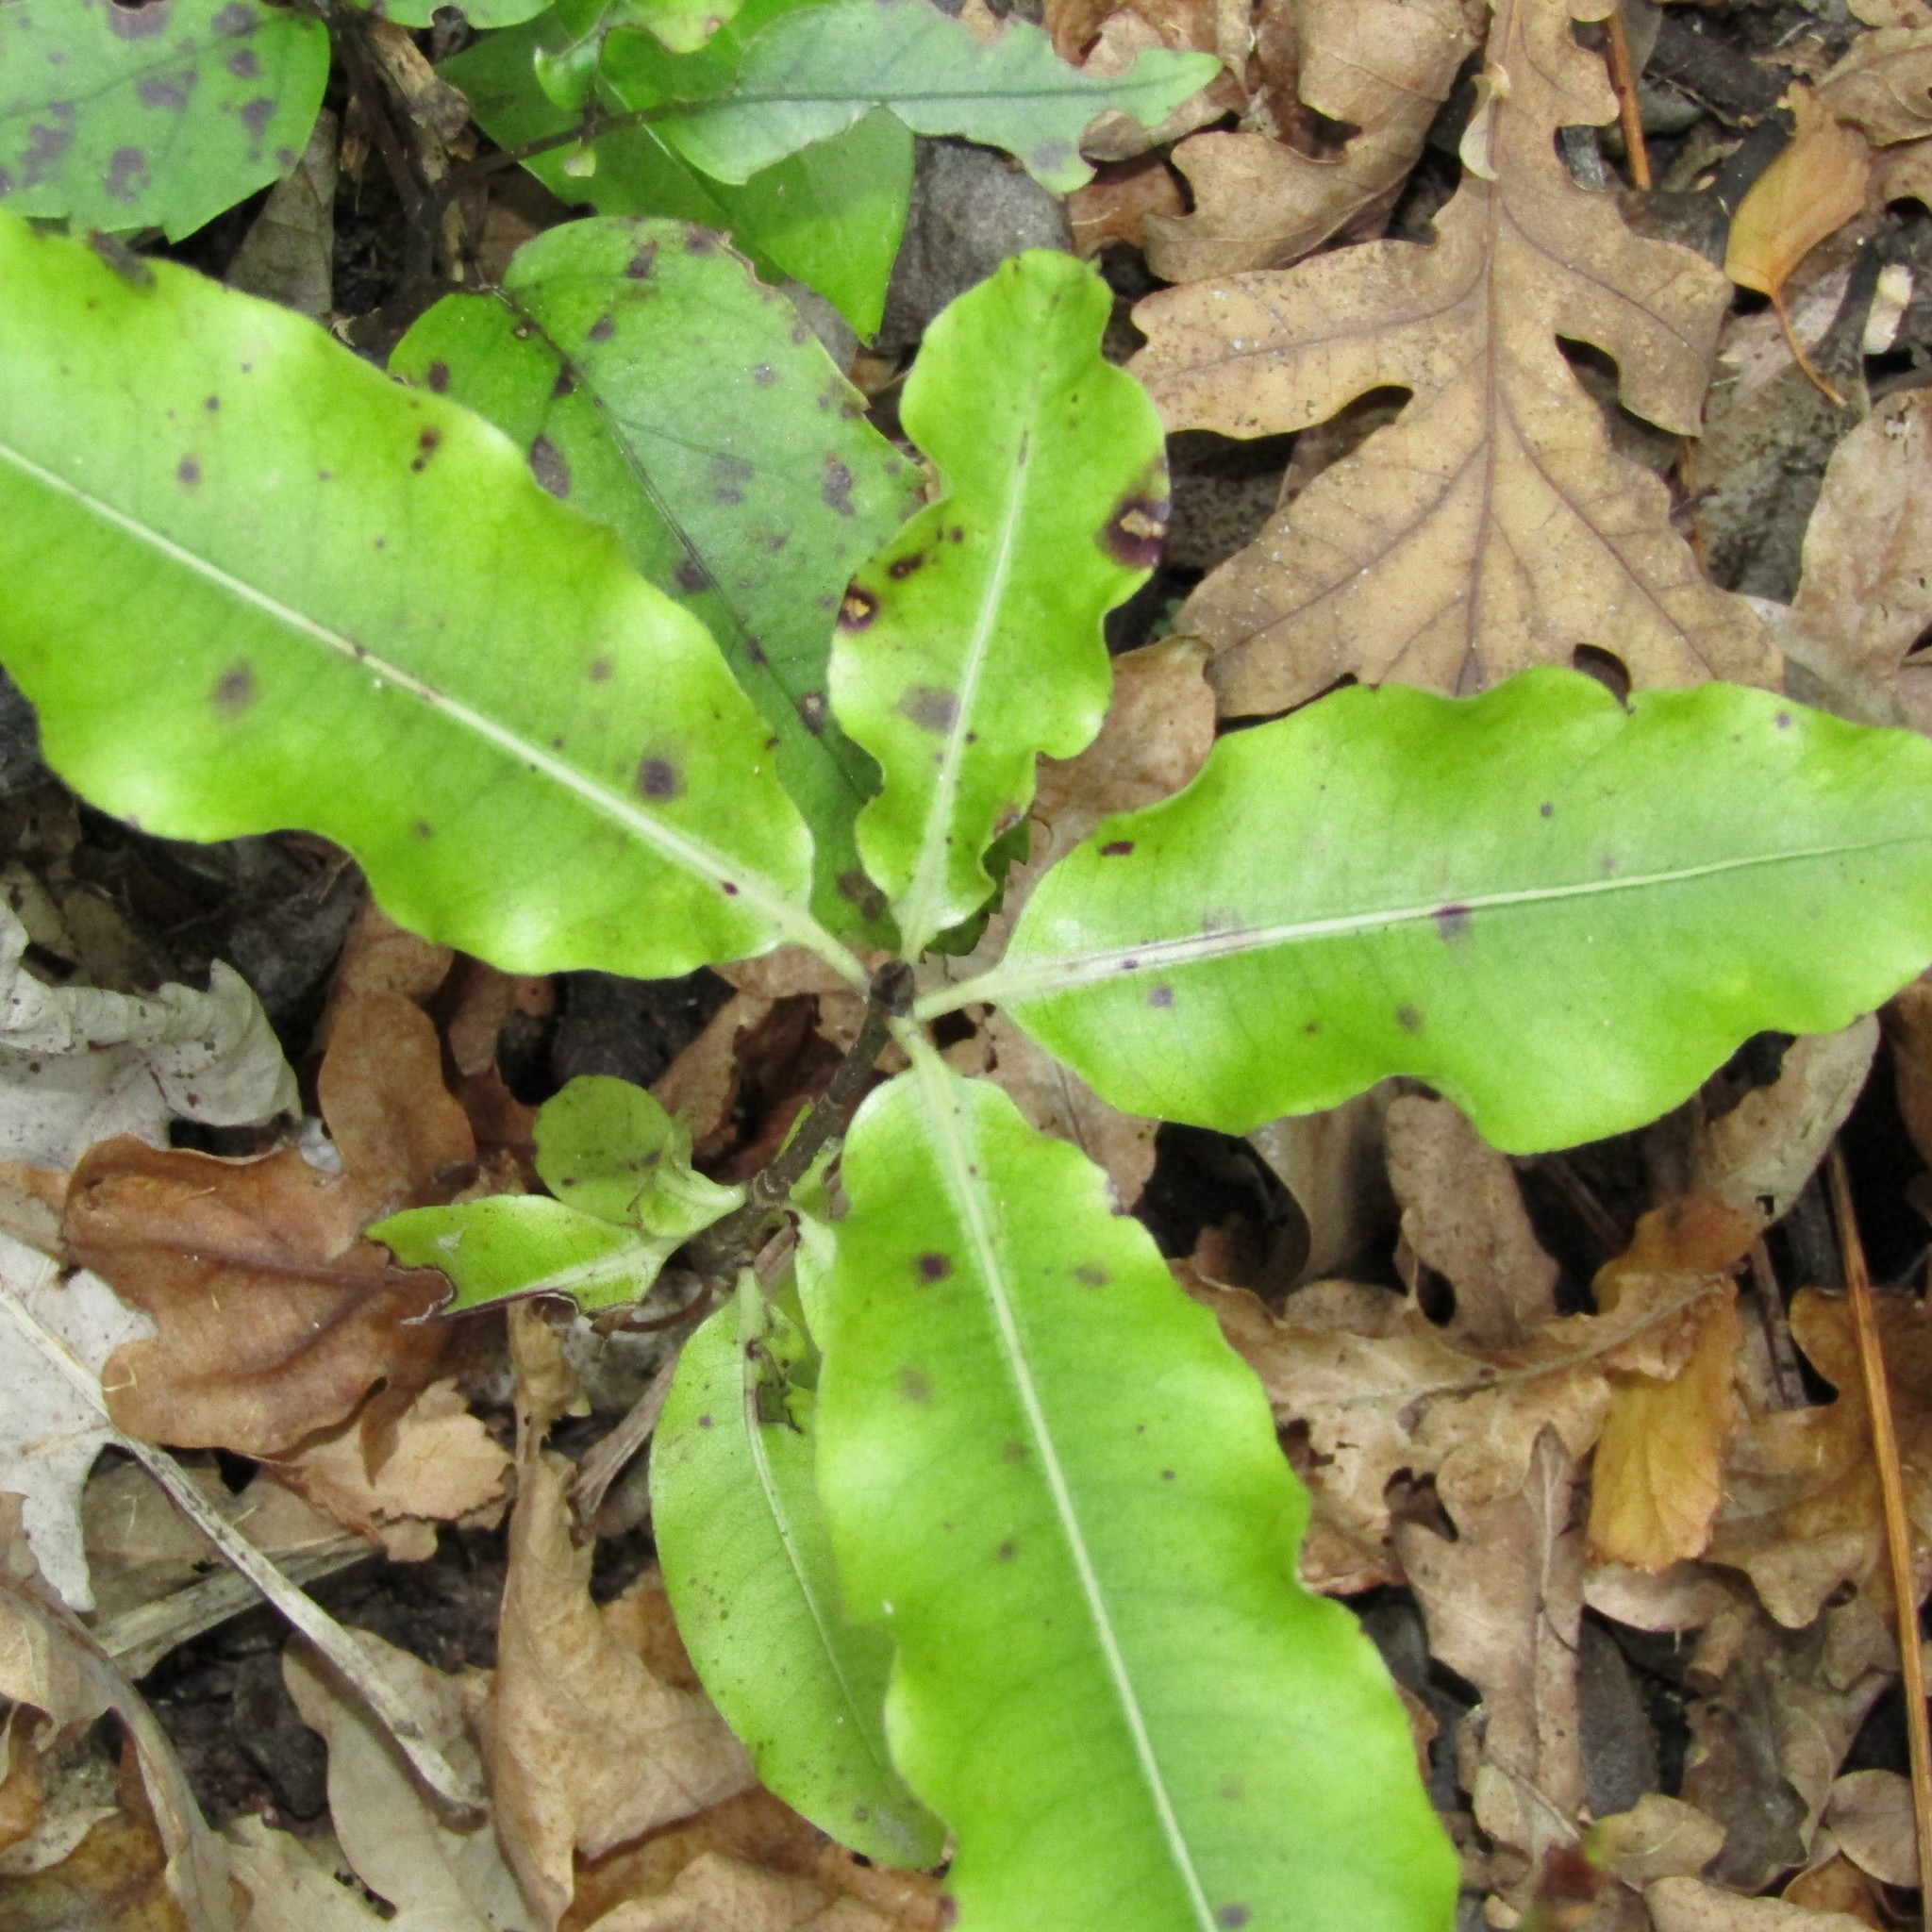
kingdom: Plantae
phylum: Tracheophyta
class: Magnoliopsida
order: Apiales
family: Pittosporaceae
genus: Pittosporum
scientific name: Pittosporum eugenioides
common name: Lemonwood
